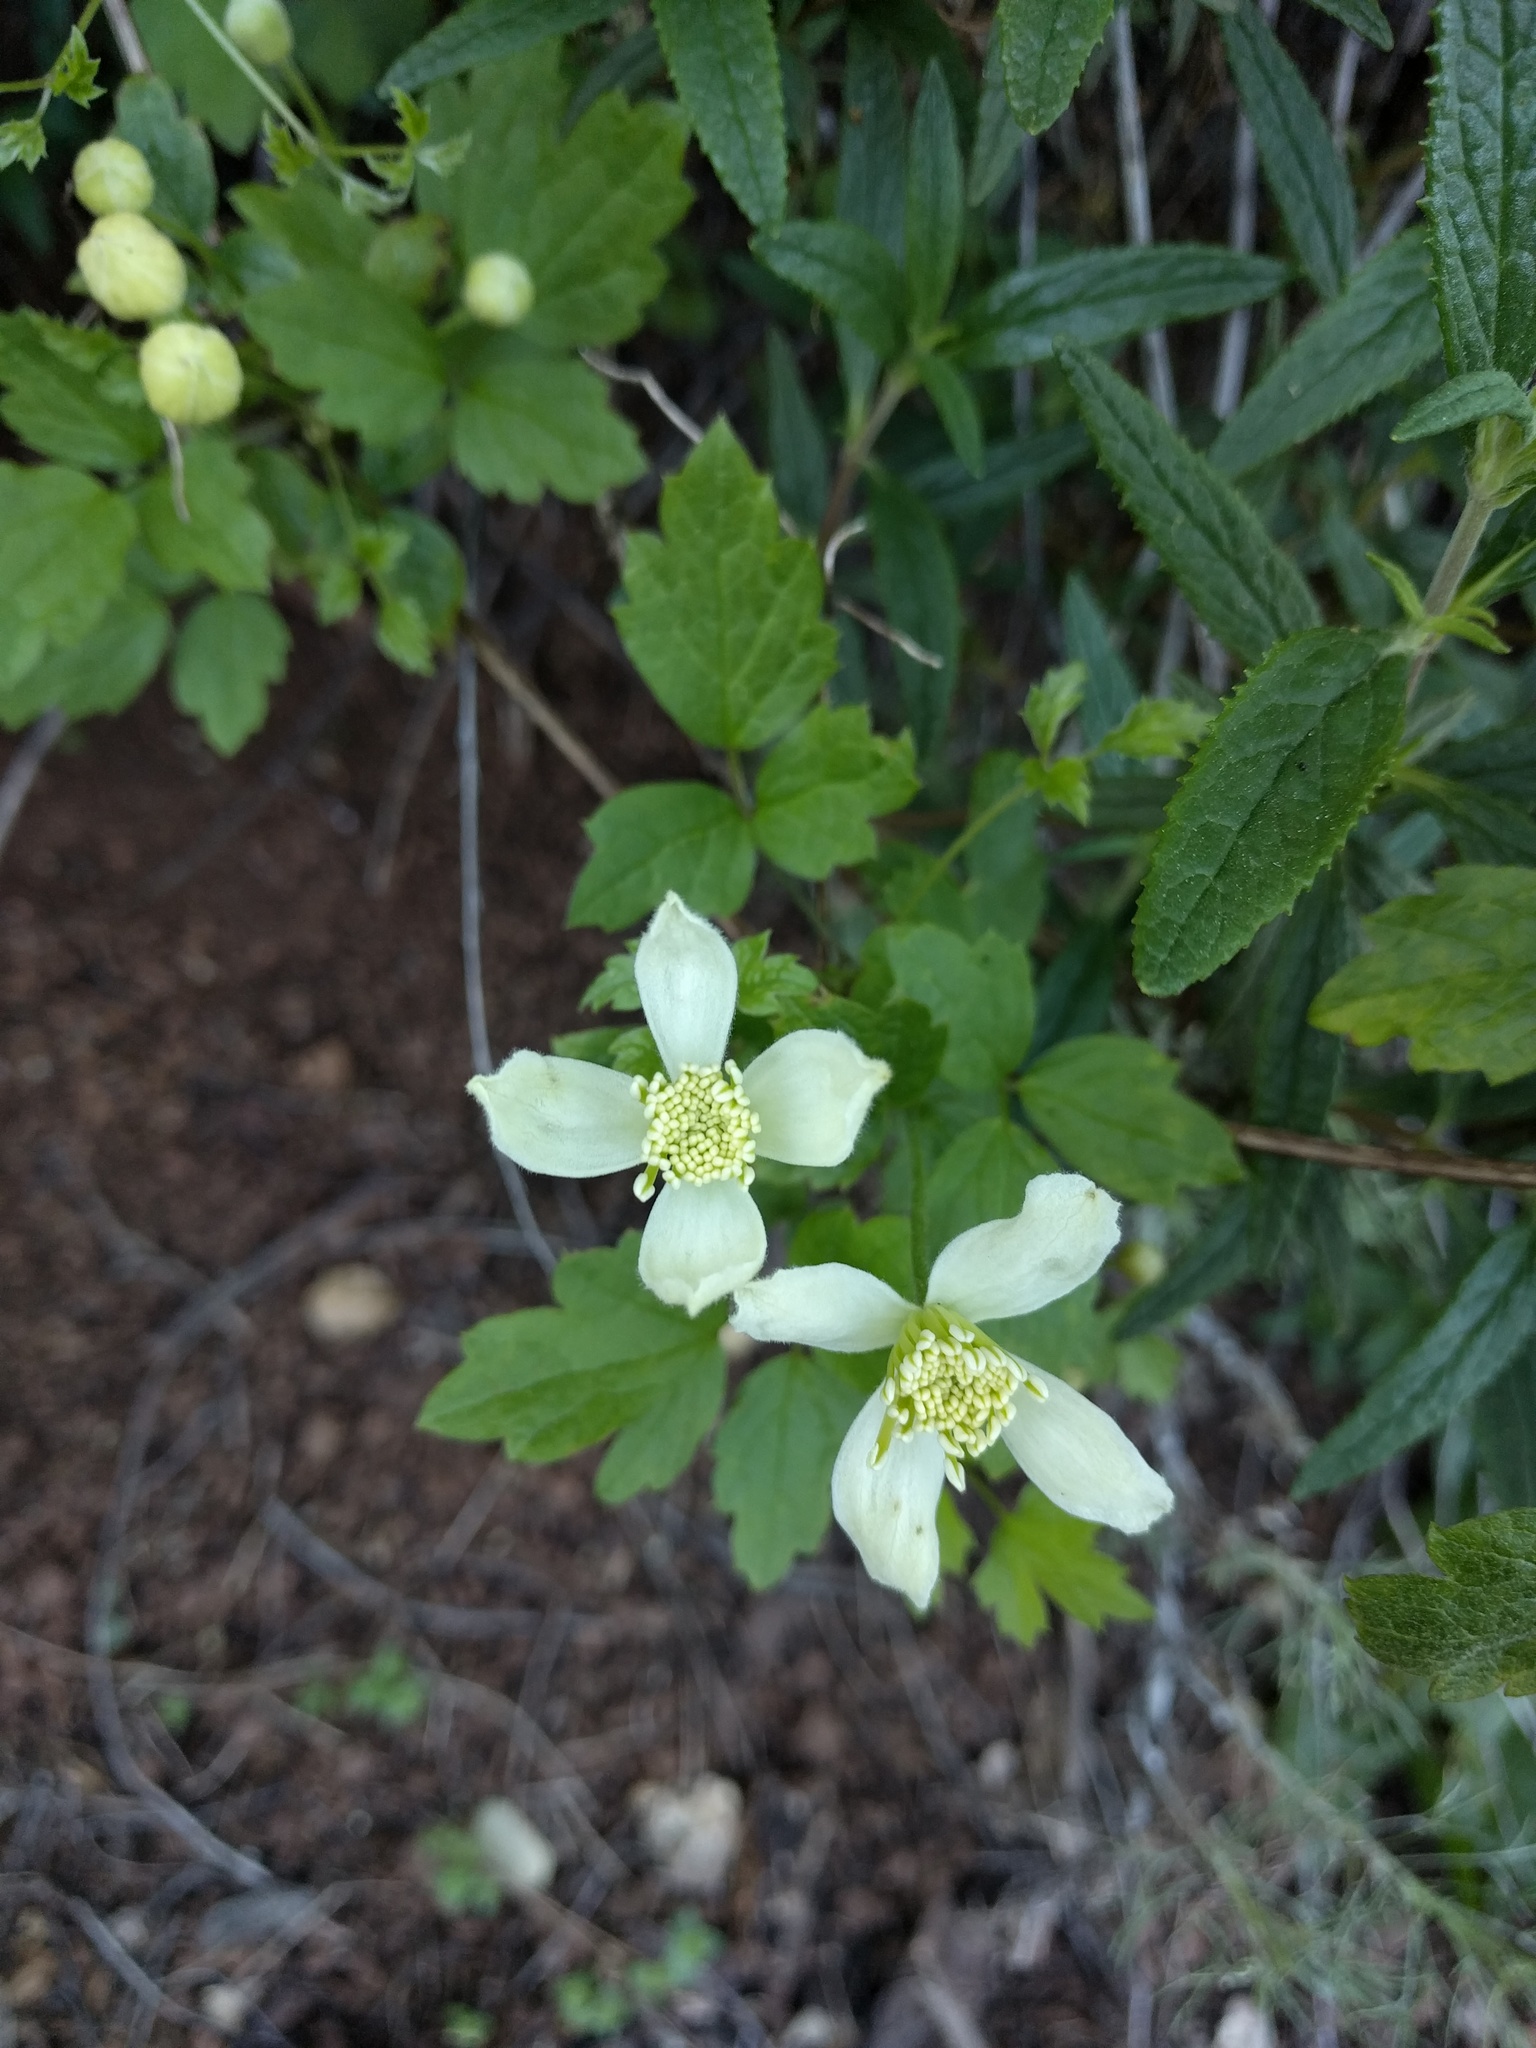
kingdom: Plantae
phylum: Tracheophyta
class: Magnoliopsida
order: Ranunculales
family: Ranunculaceae
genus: Clematis
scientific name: Clematis lasiantha
